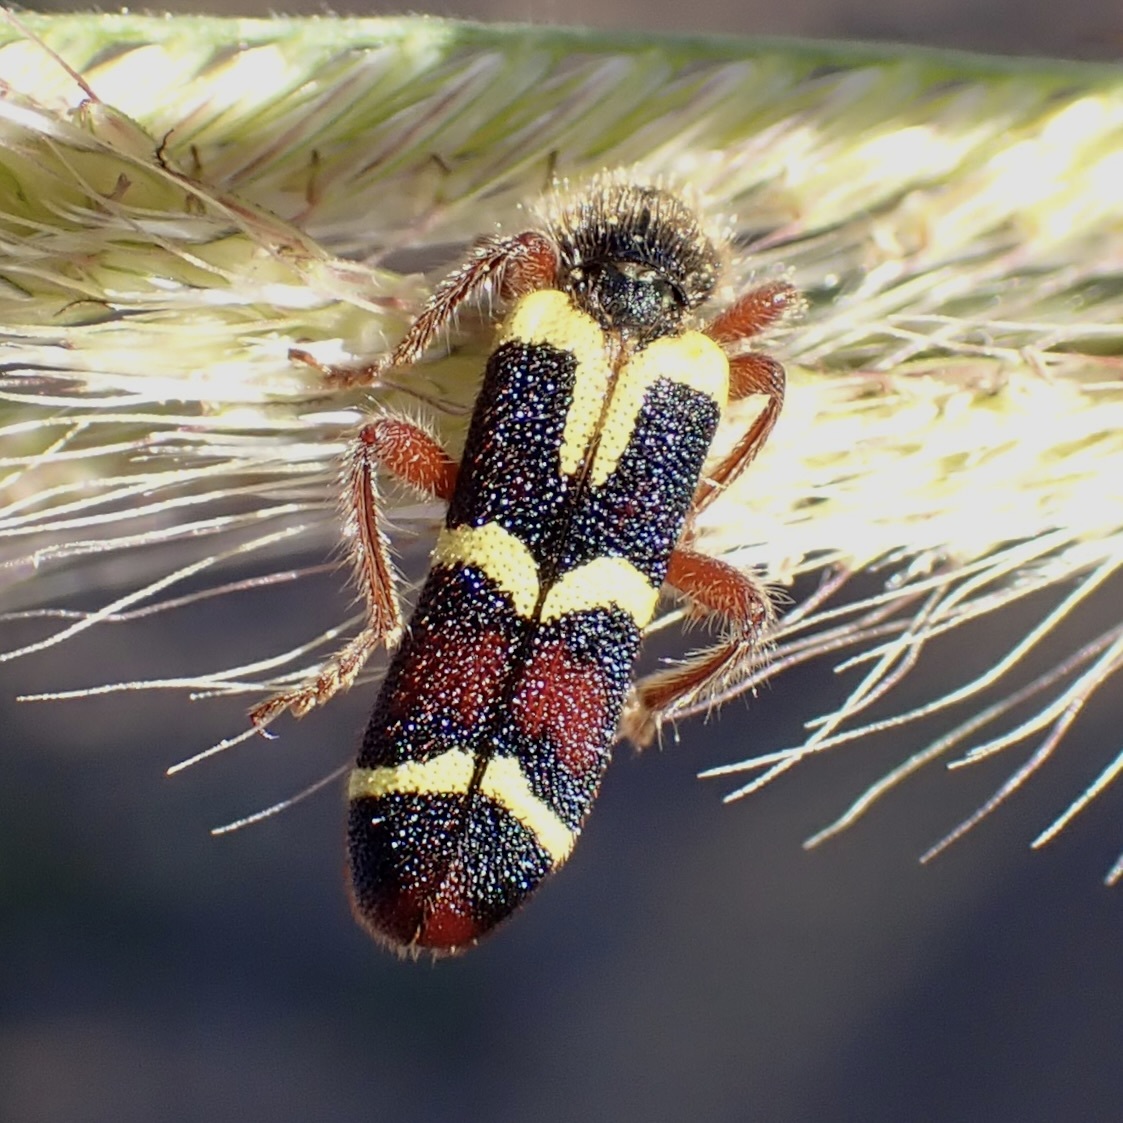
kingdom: Animalia
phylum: Arthropoda
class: Insecta
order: Coleoptera
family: Cleridae
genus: Trichodes
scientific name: Trichodes peninsularis
